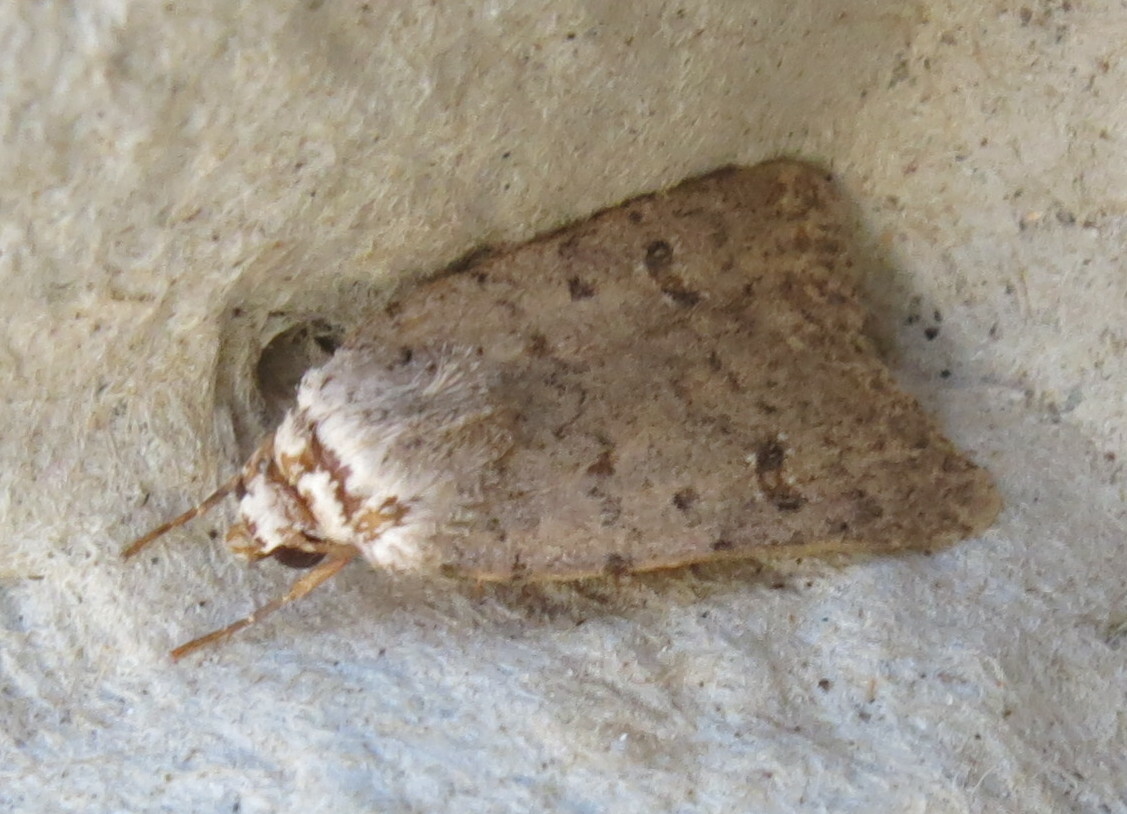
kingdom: Animalia
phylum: Arthropoda
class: Insecta
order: Lepidoptera
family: Noctuidae
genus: Caradrina
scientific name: Caradrina clavipalpis
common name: Pale mottled willow
